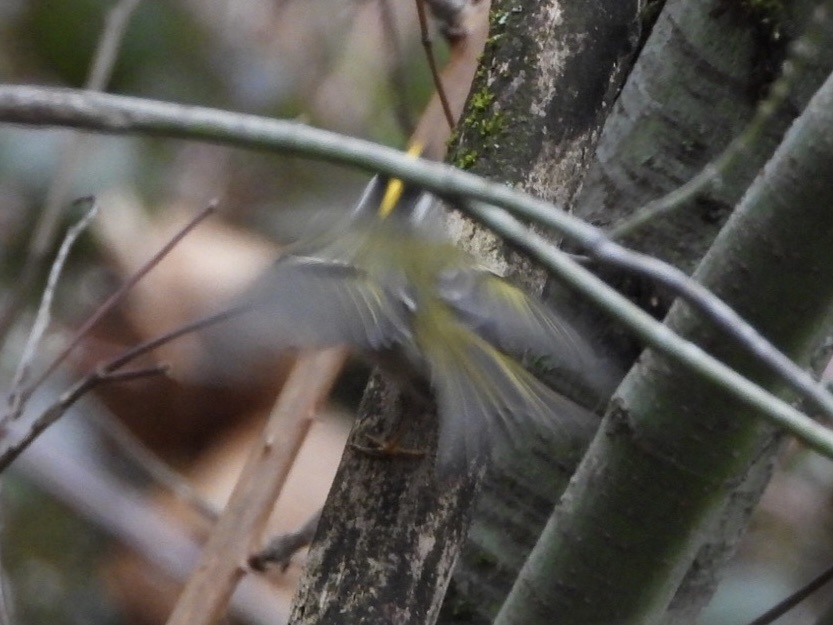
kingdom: Animalia
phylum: Chordata
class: Aves
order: Passeriformes
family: Regulidae
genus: Regulus
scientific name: Regulus satrapa
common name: Golden-crowned kinglet
